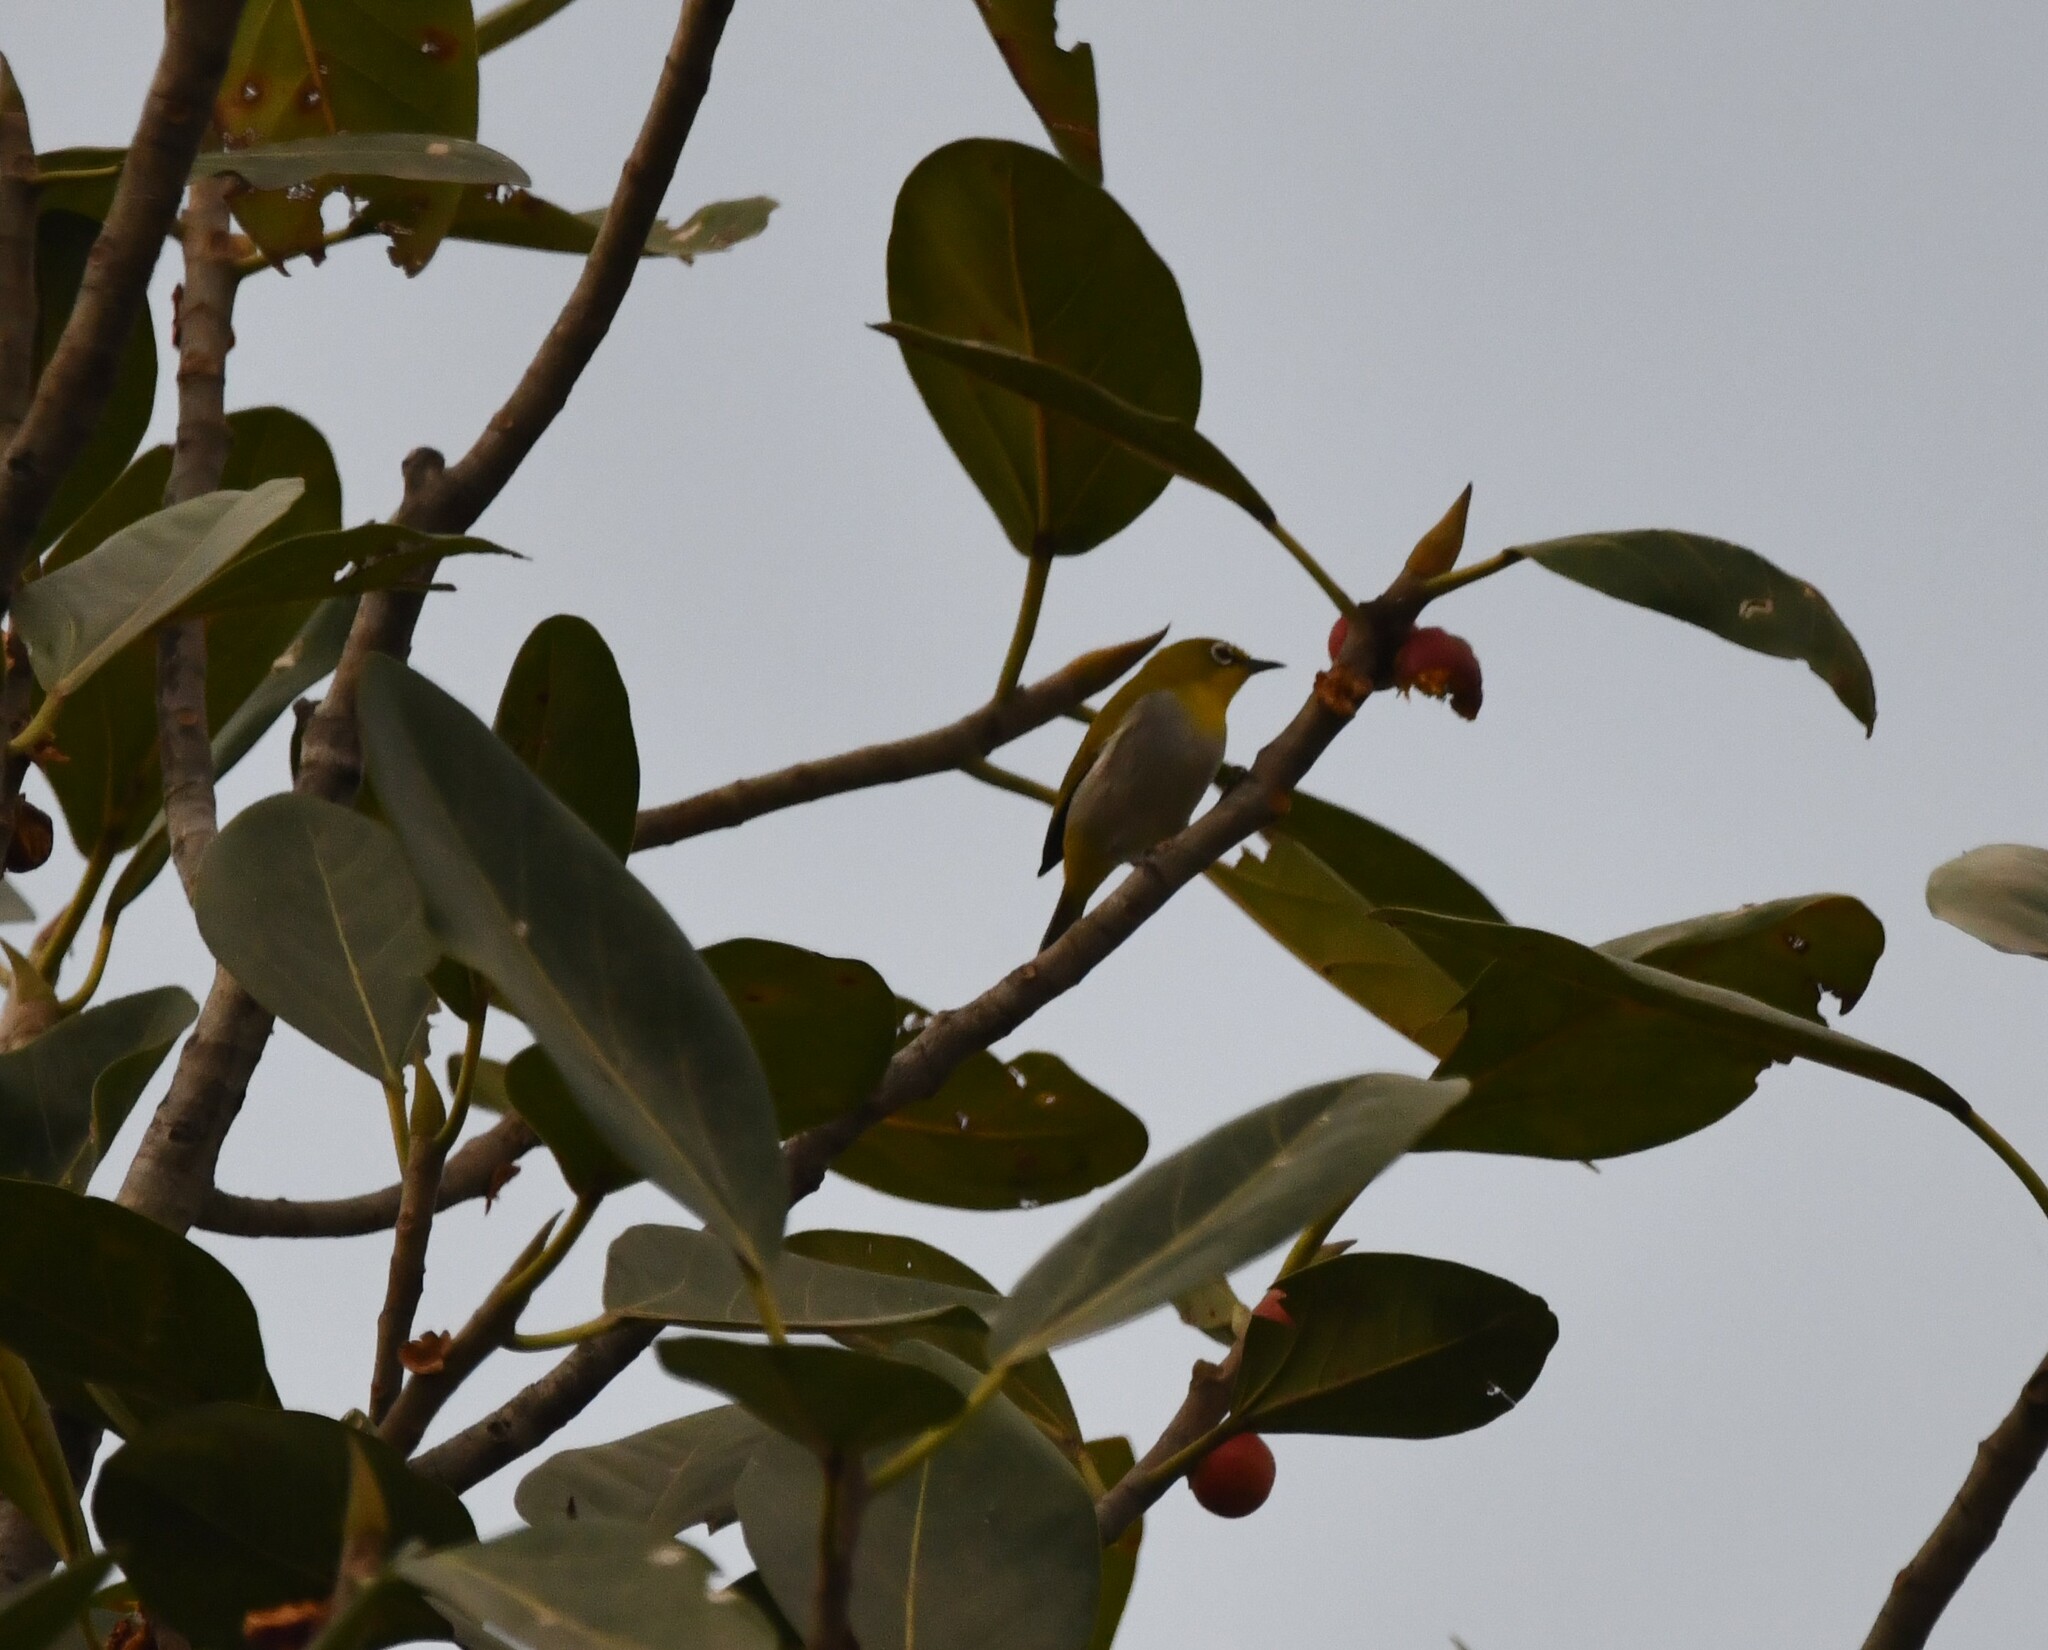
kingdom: Animalia
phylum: Chordata
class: Aves
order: Passeriformes
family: Zosteropidae
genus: Zosterops
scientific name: Zosterops palpebrosus
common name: Oriental white-eye
